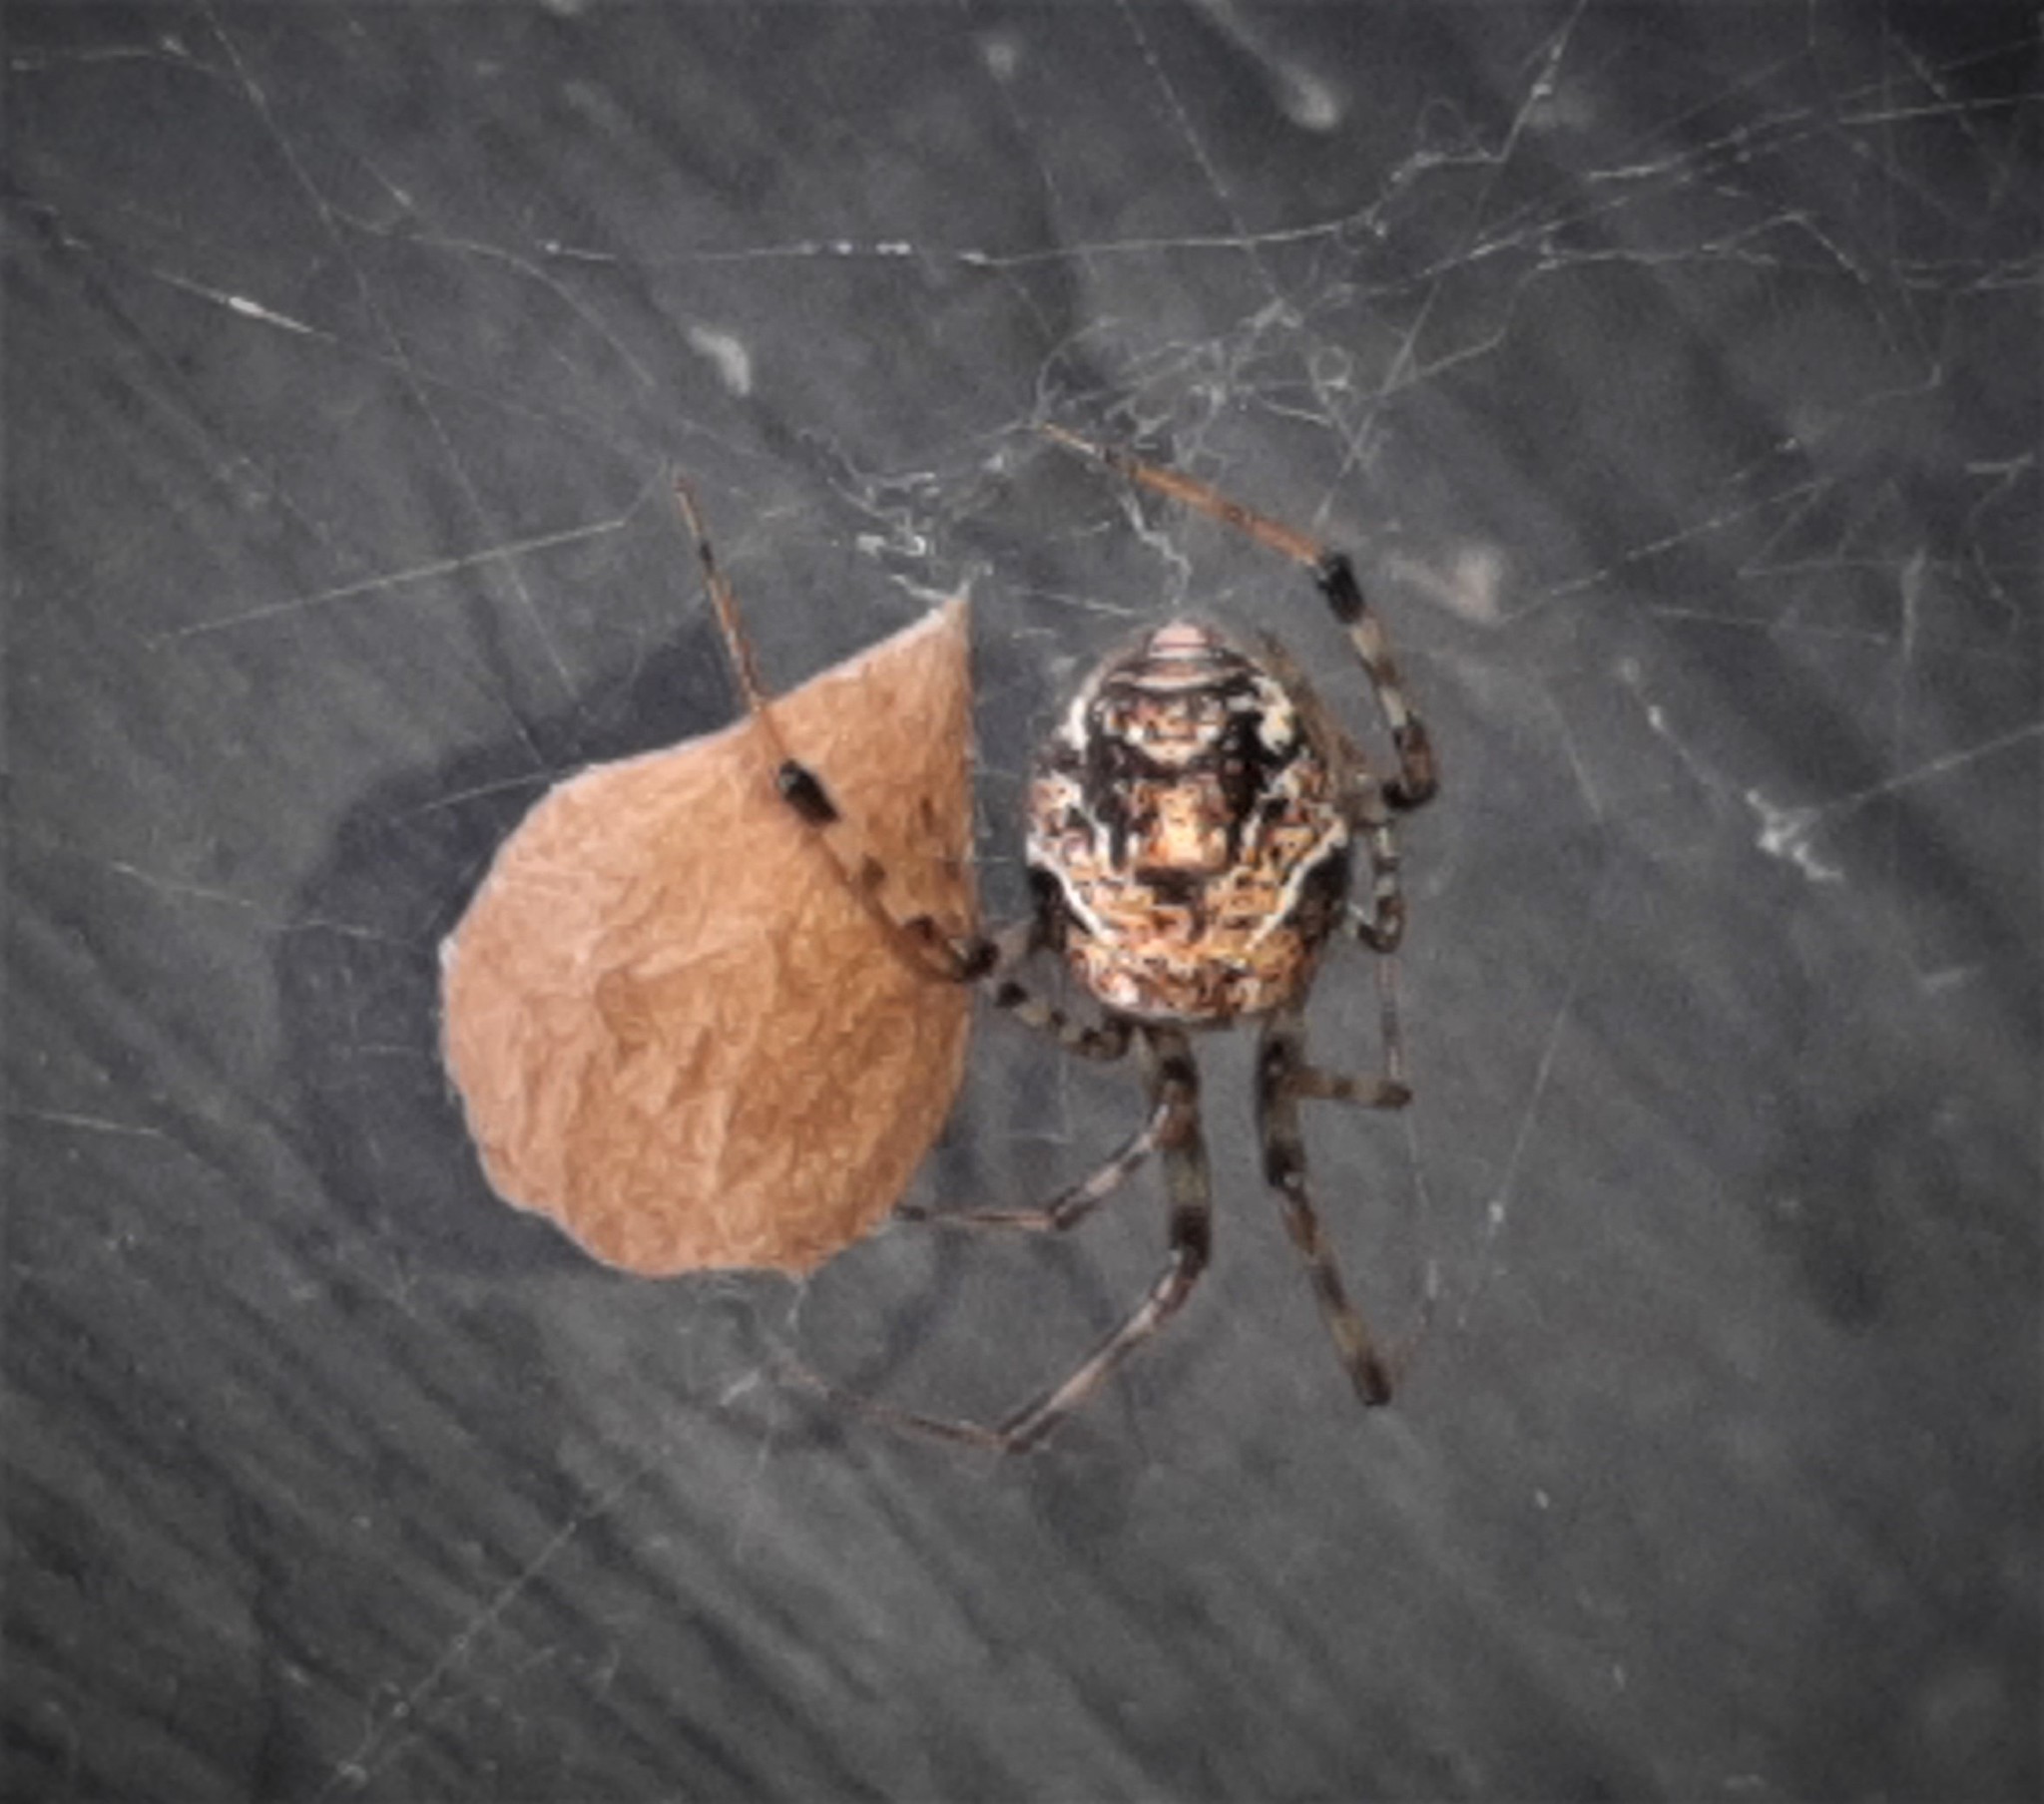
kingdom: Animalia
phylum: Arthropoda
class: Arachnida
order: Araneae
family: Theridiidae
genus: Parasteatoda
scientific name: Parasteatoda tepidariorum
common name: Common house spider
